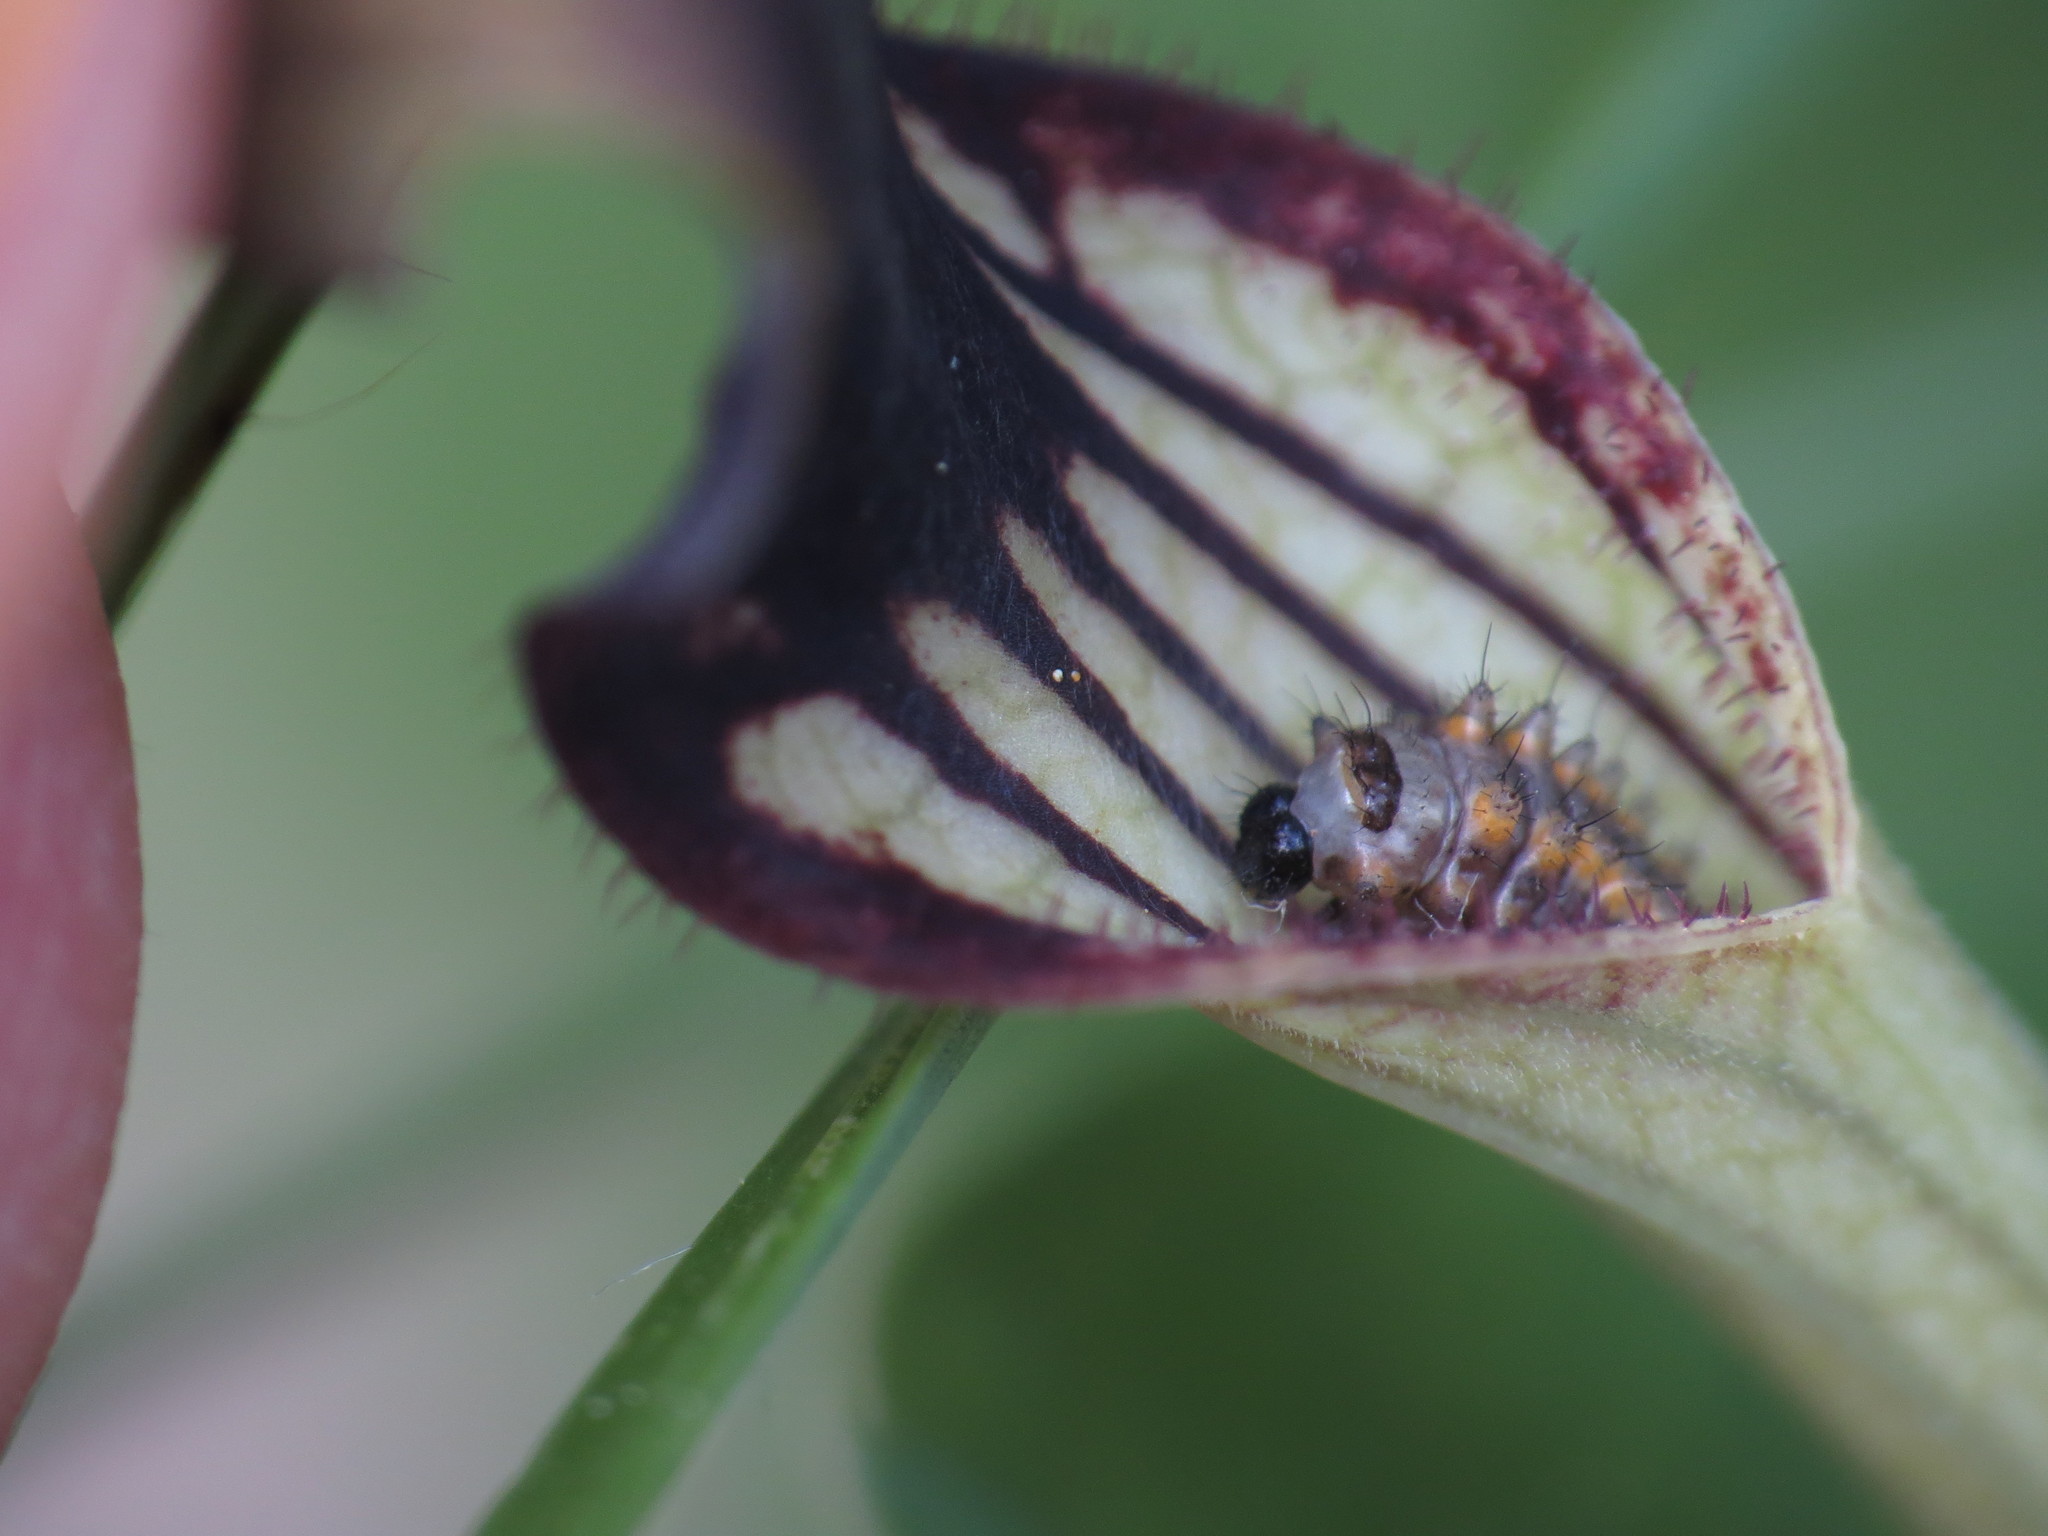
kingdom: Animalia
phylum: Arthropoda
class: Insecta
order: Lepidoptera
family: Papilionidae
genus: Zerynthia
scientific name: Zerynthia polyxena
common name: Southern festoon
